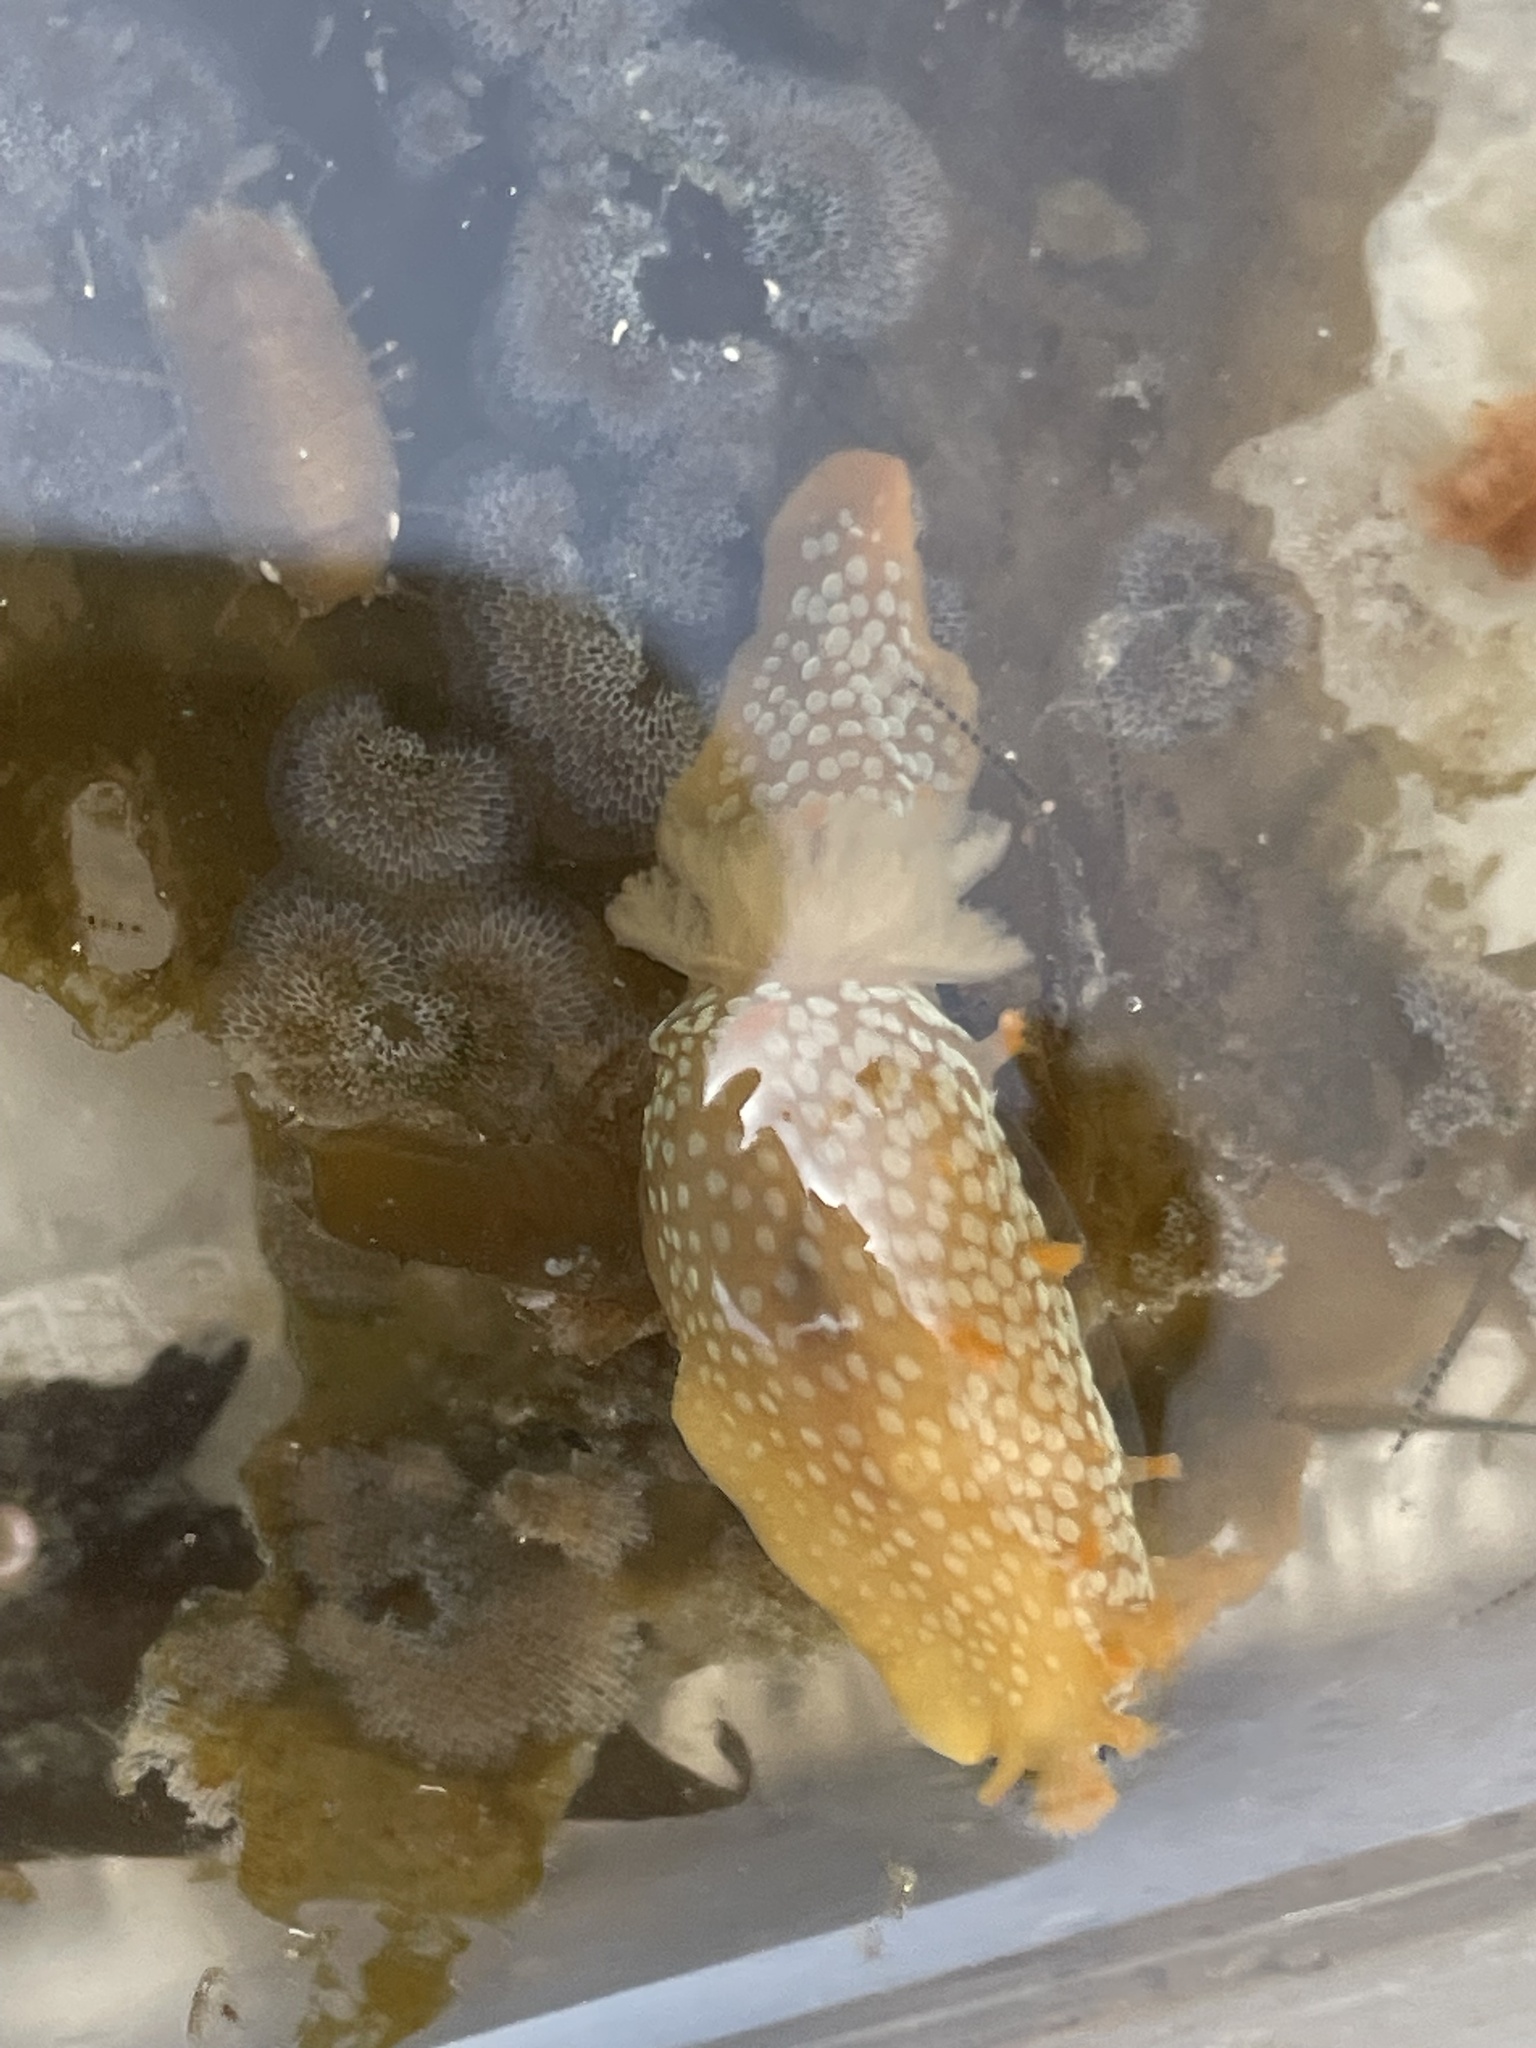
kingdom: Animalia
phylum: Mollusca
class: Gastropoda
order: Nudibranchia
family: Polyceridae
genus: Triopha
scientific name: Triopha maculata
